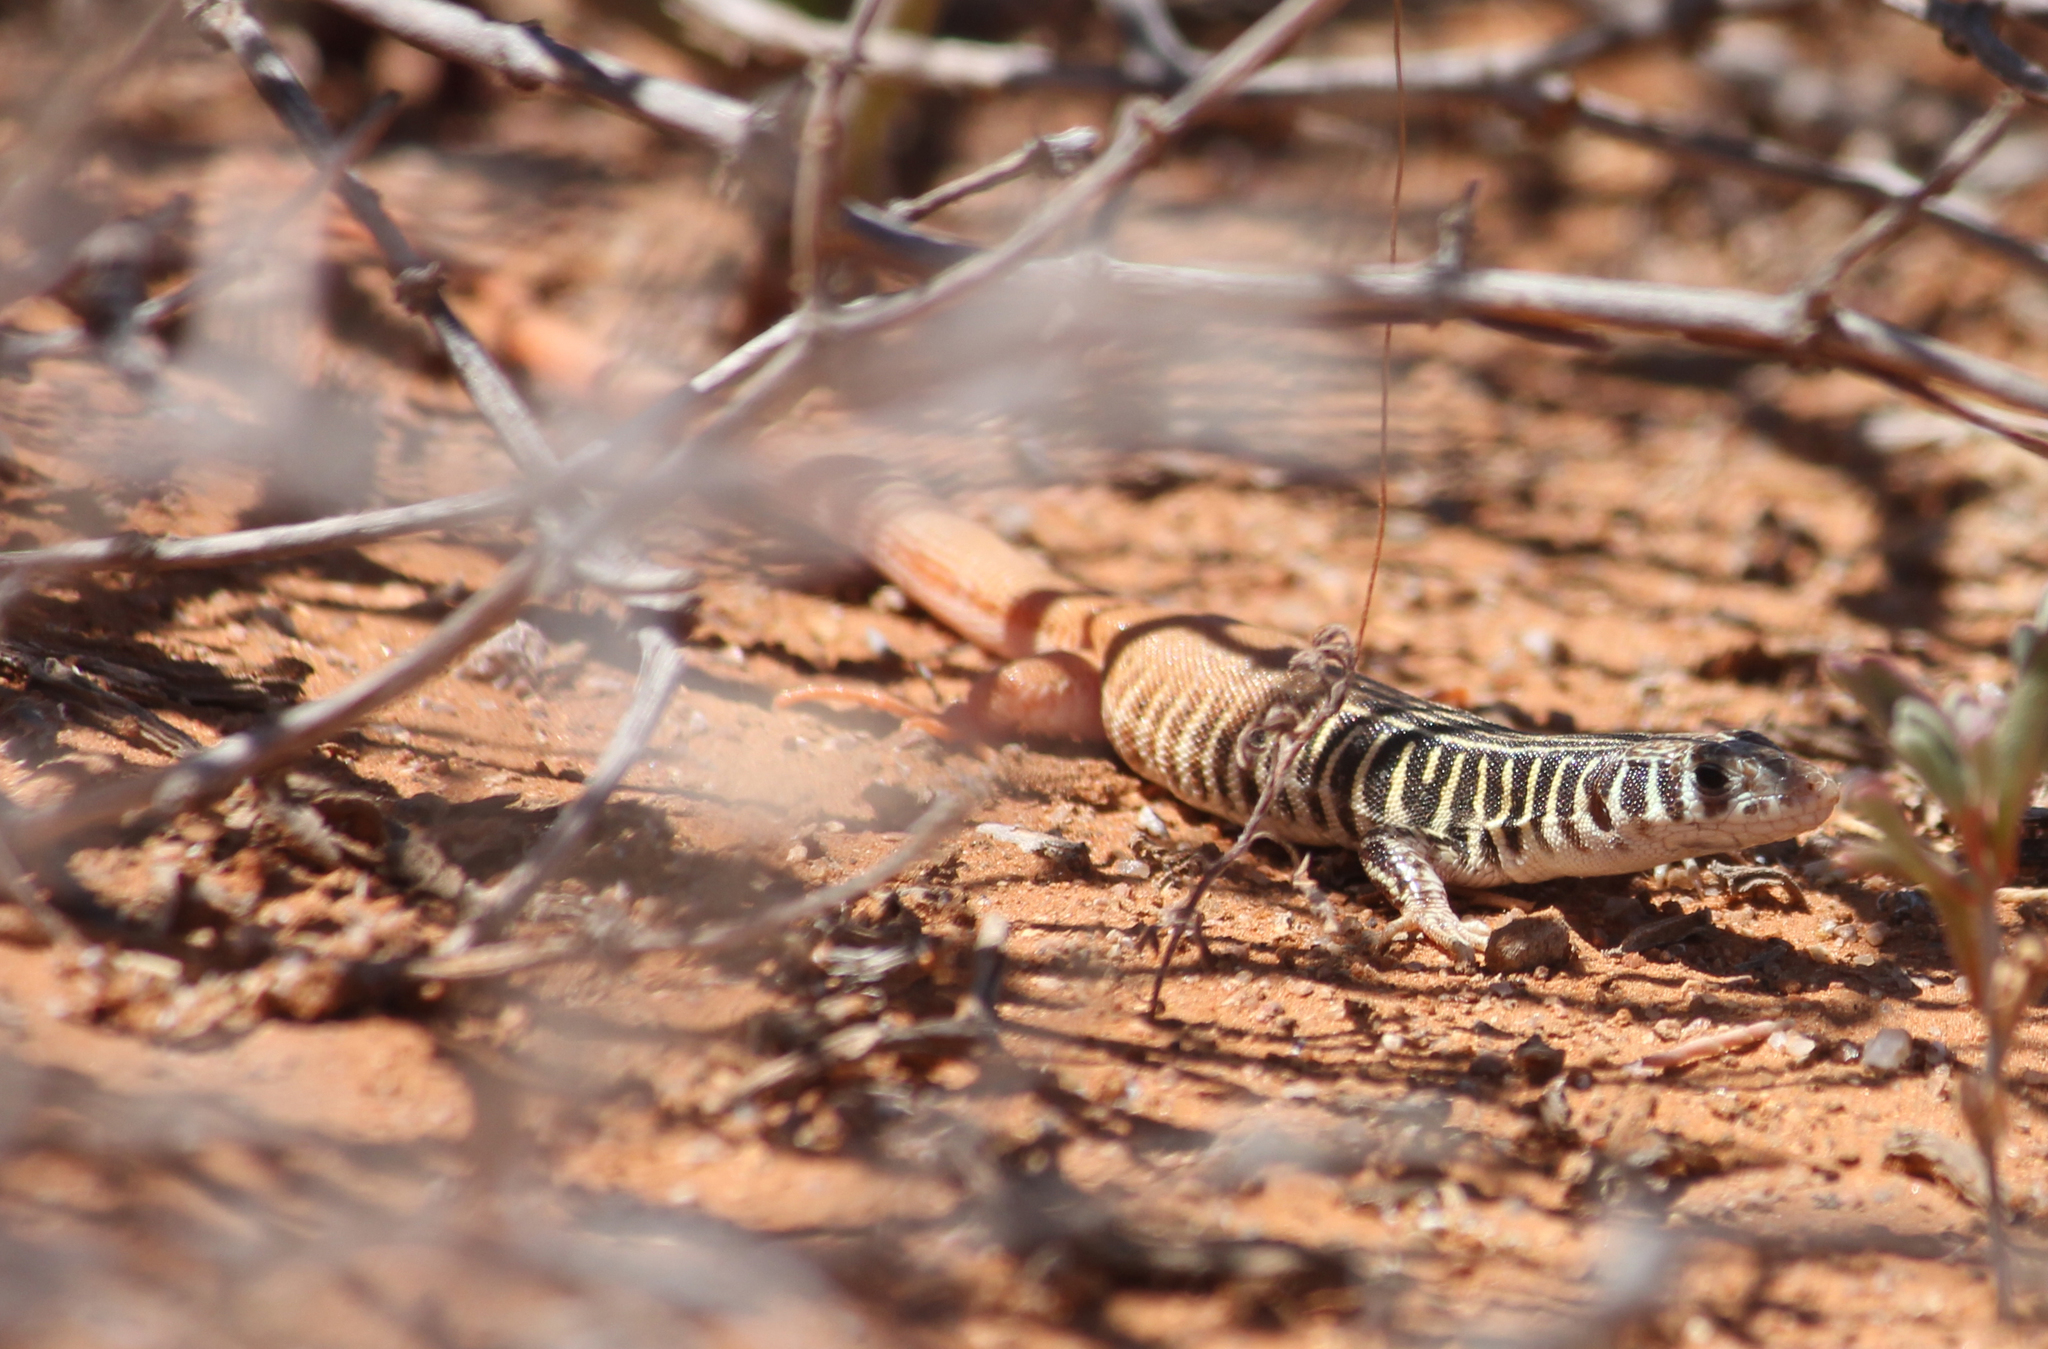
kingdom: Animalia
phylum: Chordata
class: Squamata
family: Lacertidae
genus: Nucras
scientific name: Nucras tessellata
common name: Western sandveld lizard
